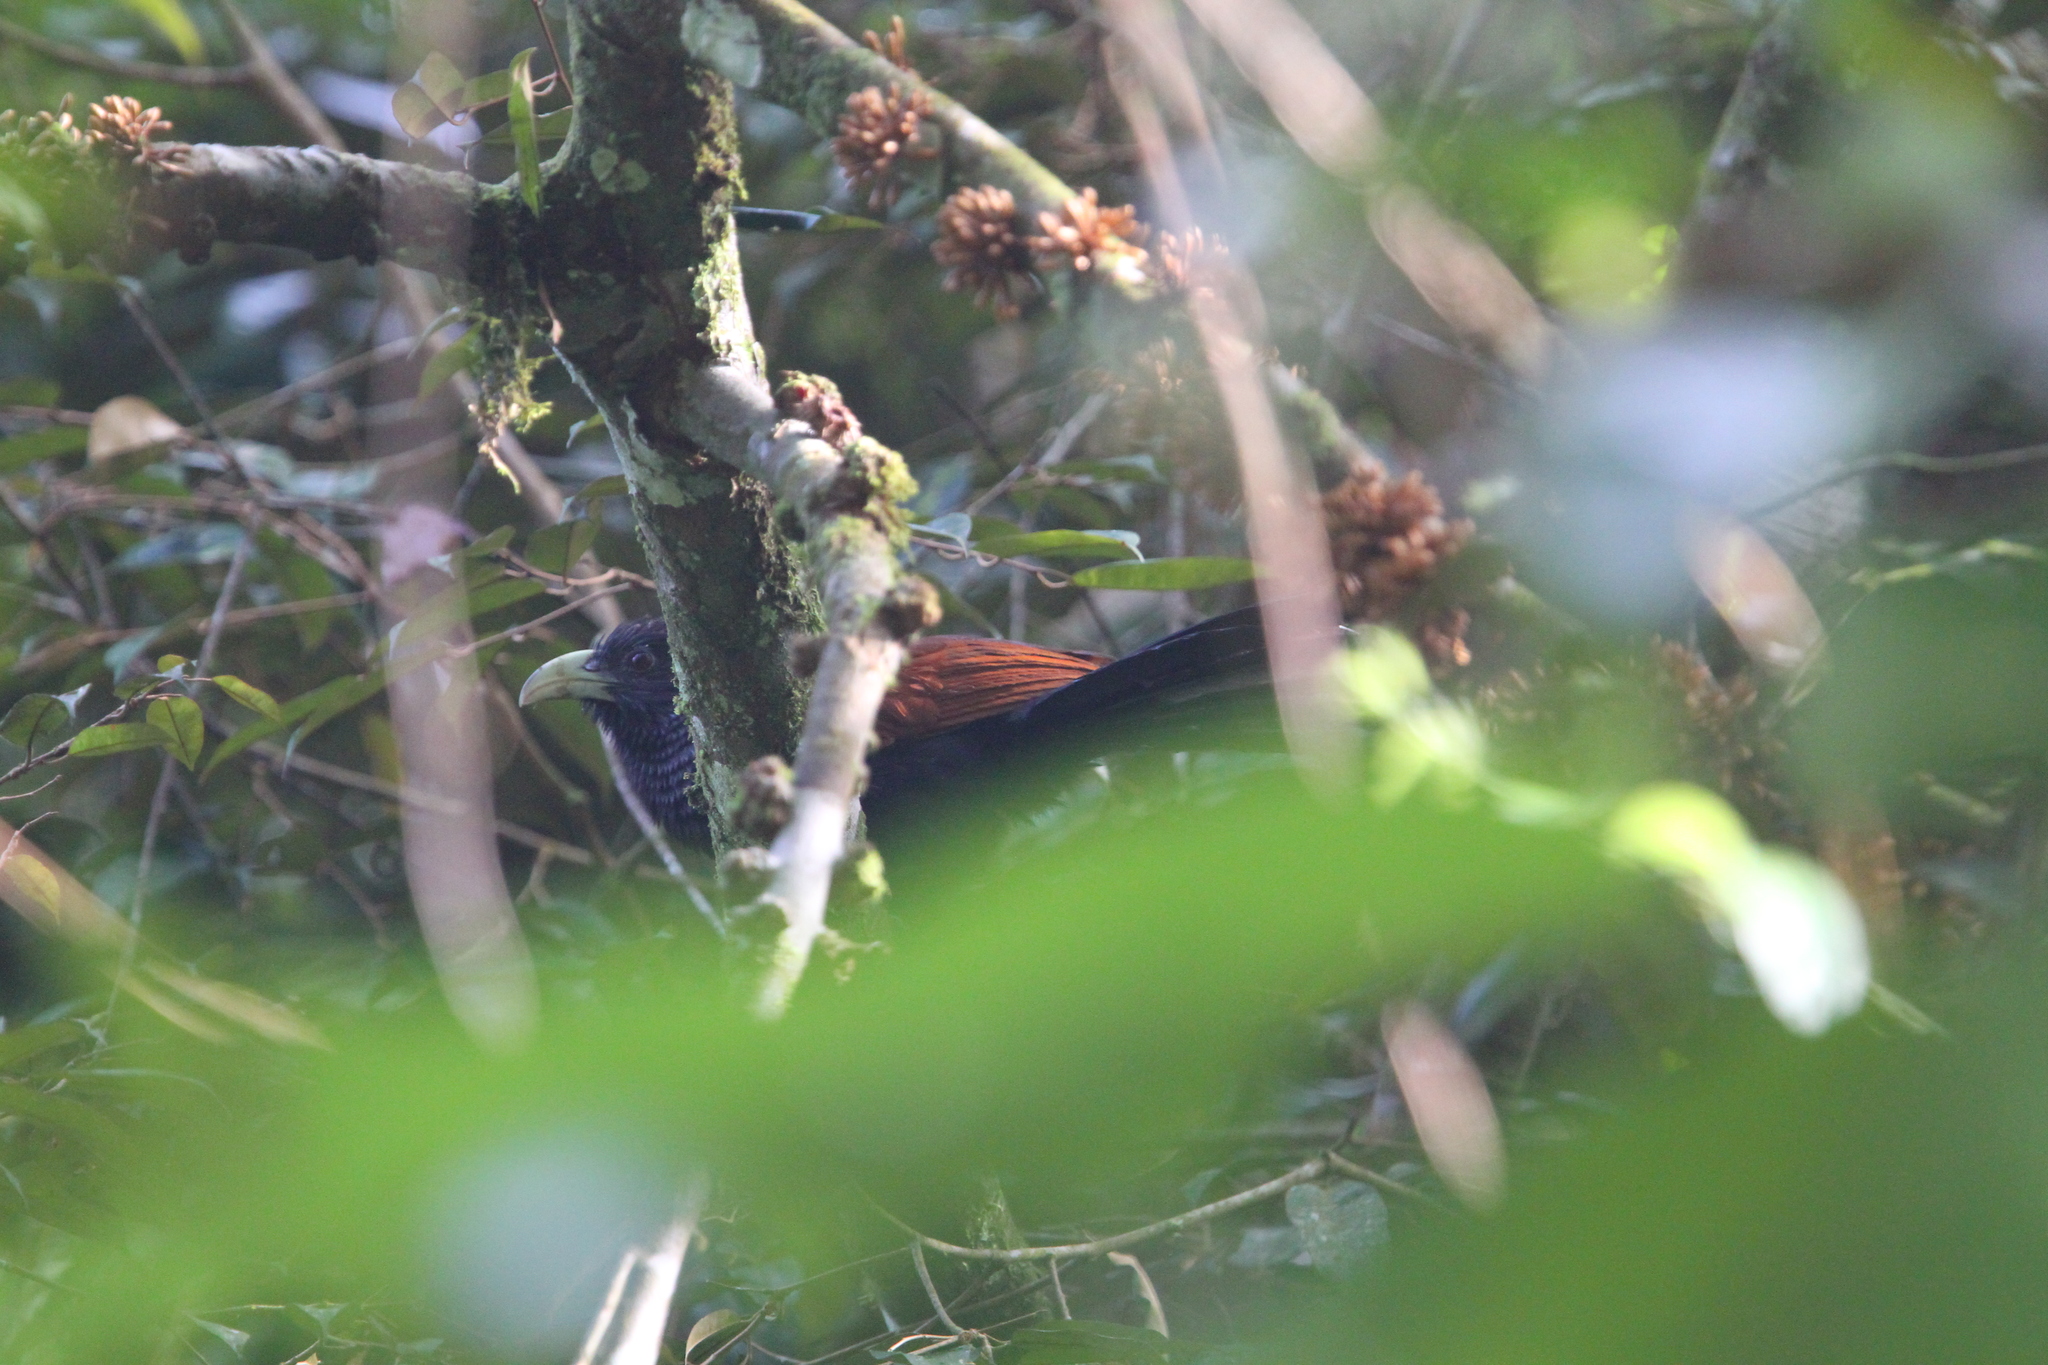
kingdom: Animalia
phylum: Chordata
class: Aves
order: Cuculiformes
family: Cuculidae
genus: Centropus
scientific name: Centropus chlororhynchos
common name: Green-billed coucal
